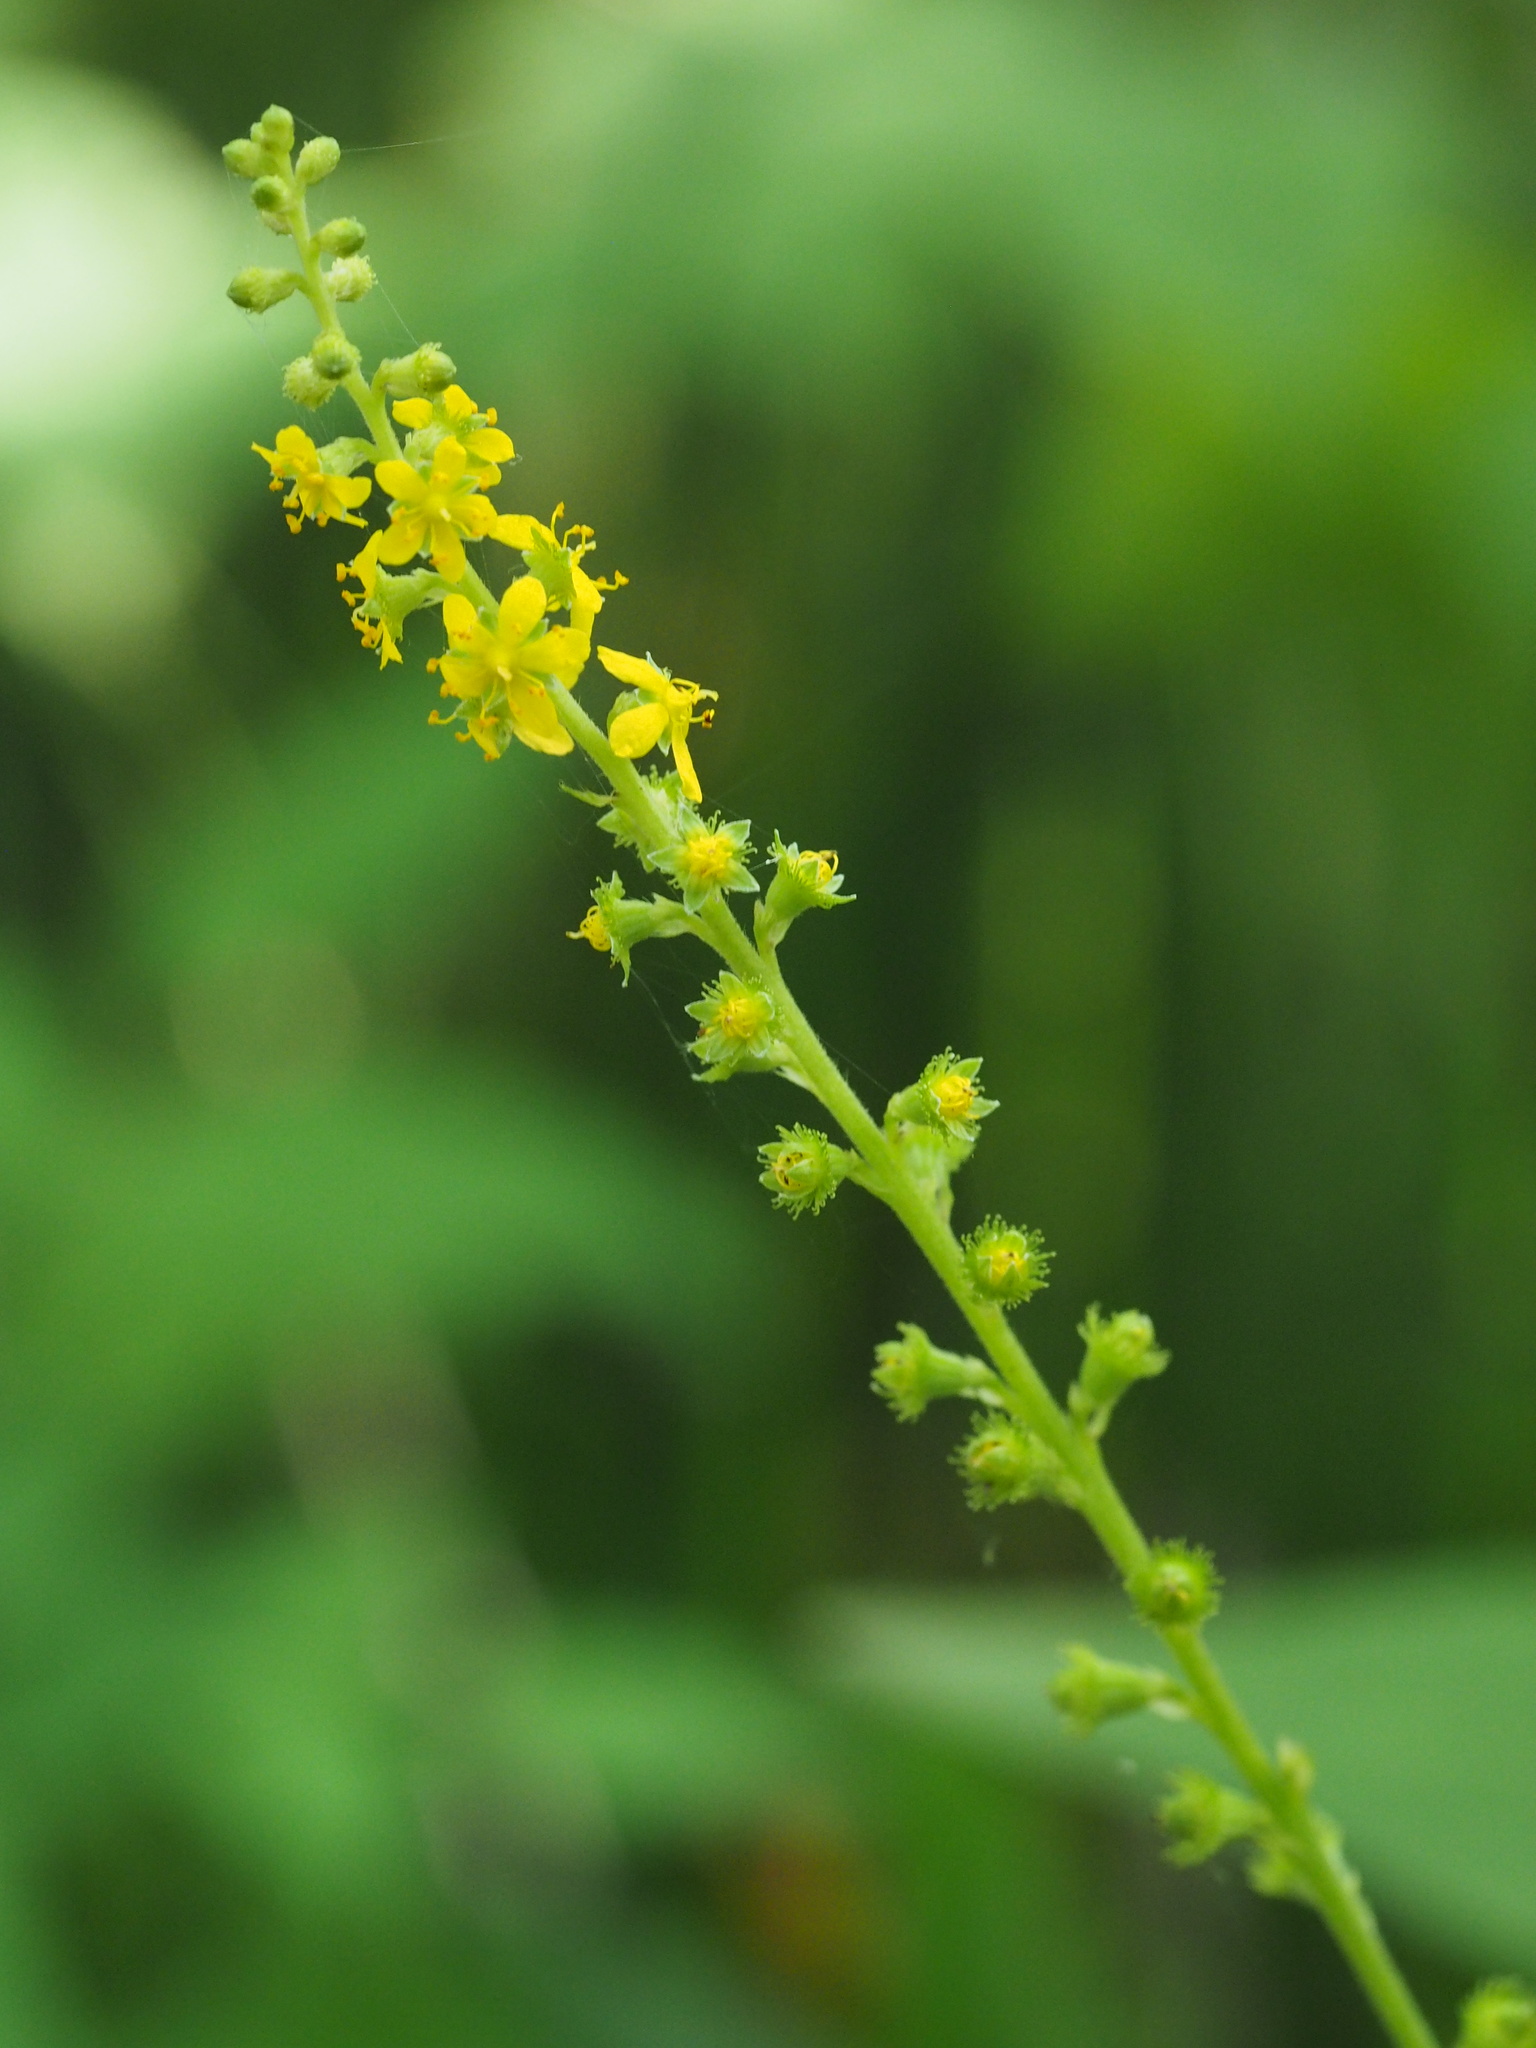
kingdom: Plantae
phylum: Tracheophyta
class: Magnoliopsida
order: Rosales
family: Rosaceae
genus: Agrimonia
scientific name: Agrimonia pilosa
